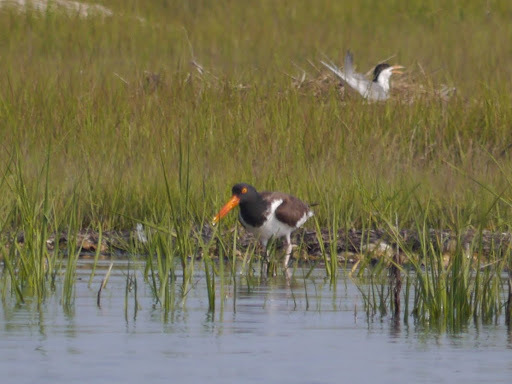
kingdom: Animalia
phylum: Chordata
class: Aves
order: Charadriiformes
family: Haematopodidae
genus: Haematopus
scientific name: Haematopus palliatus
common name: American oystercatcher
